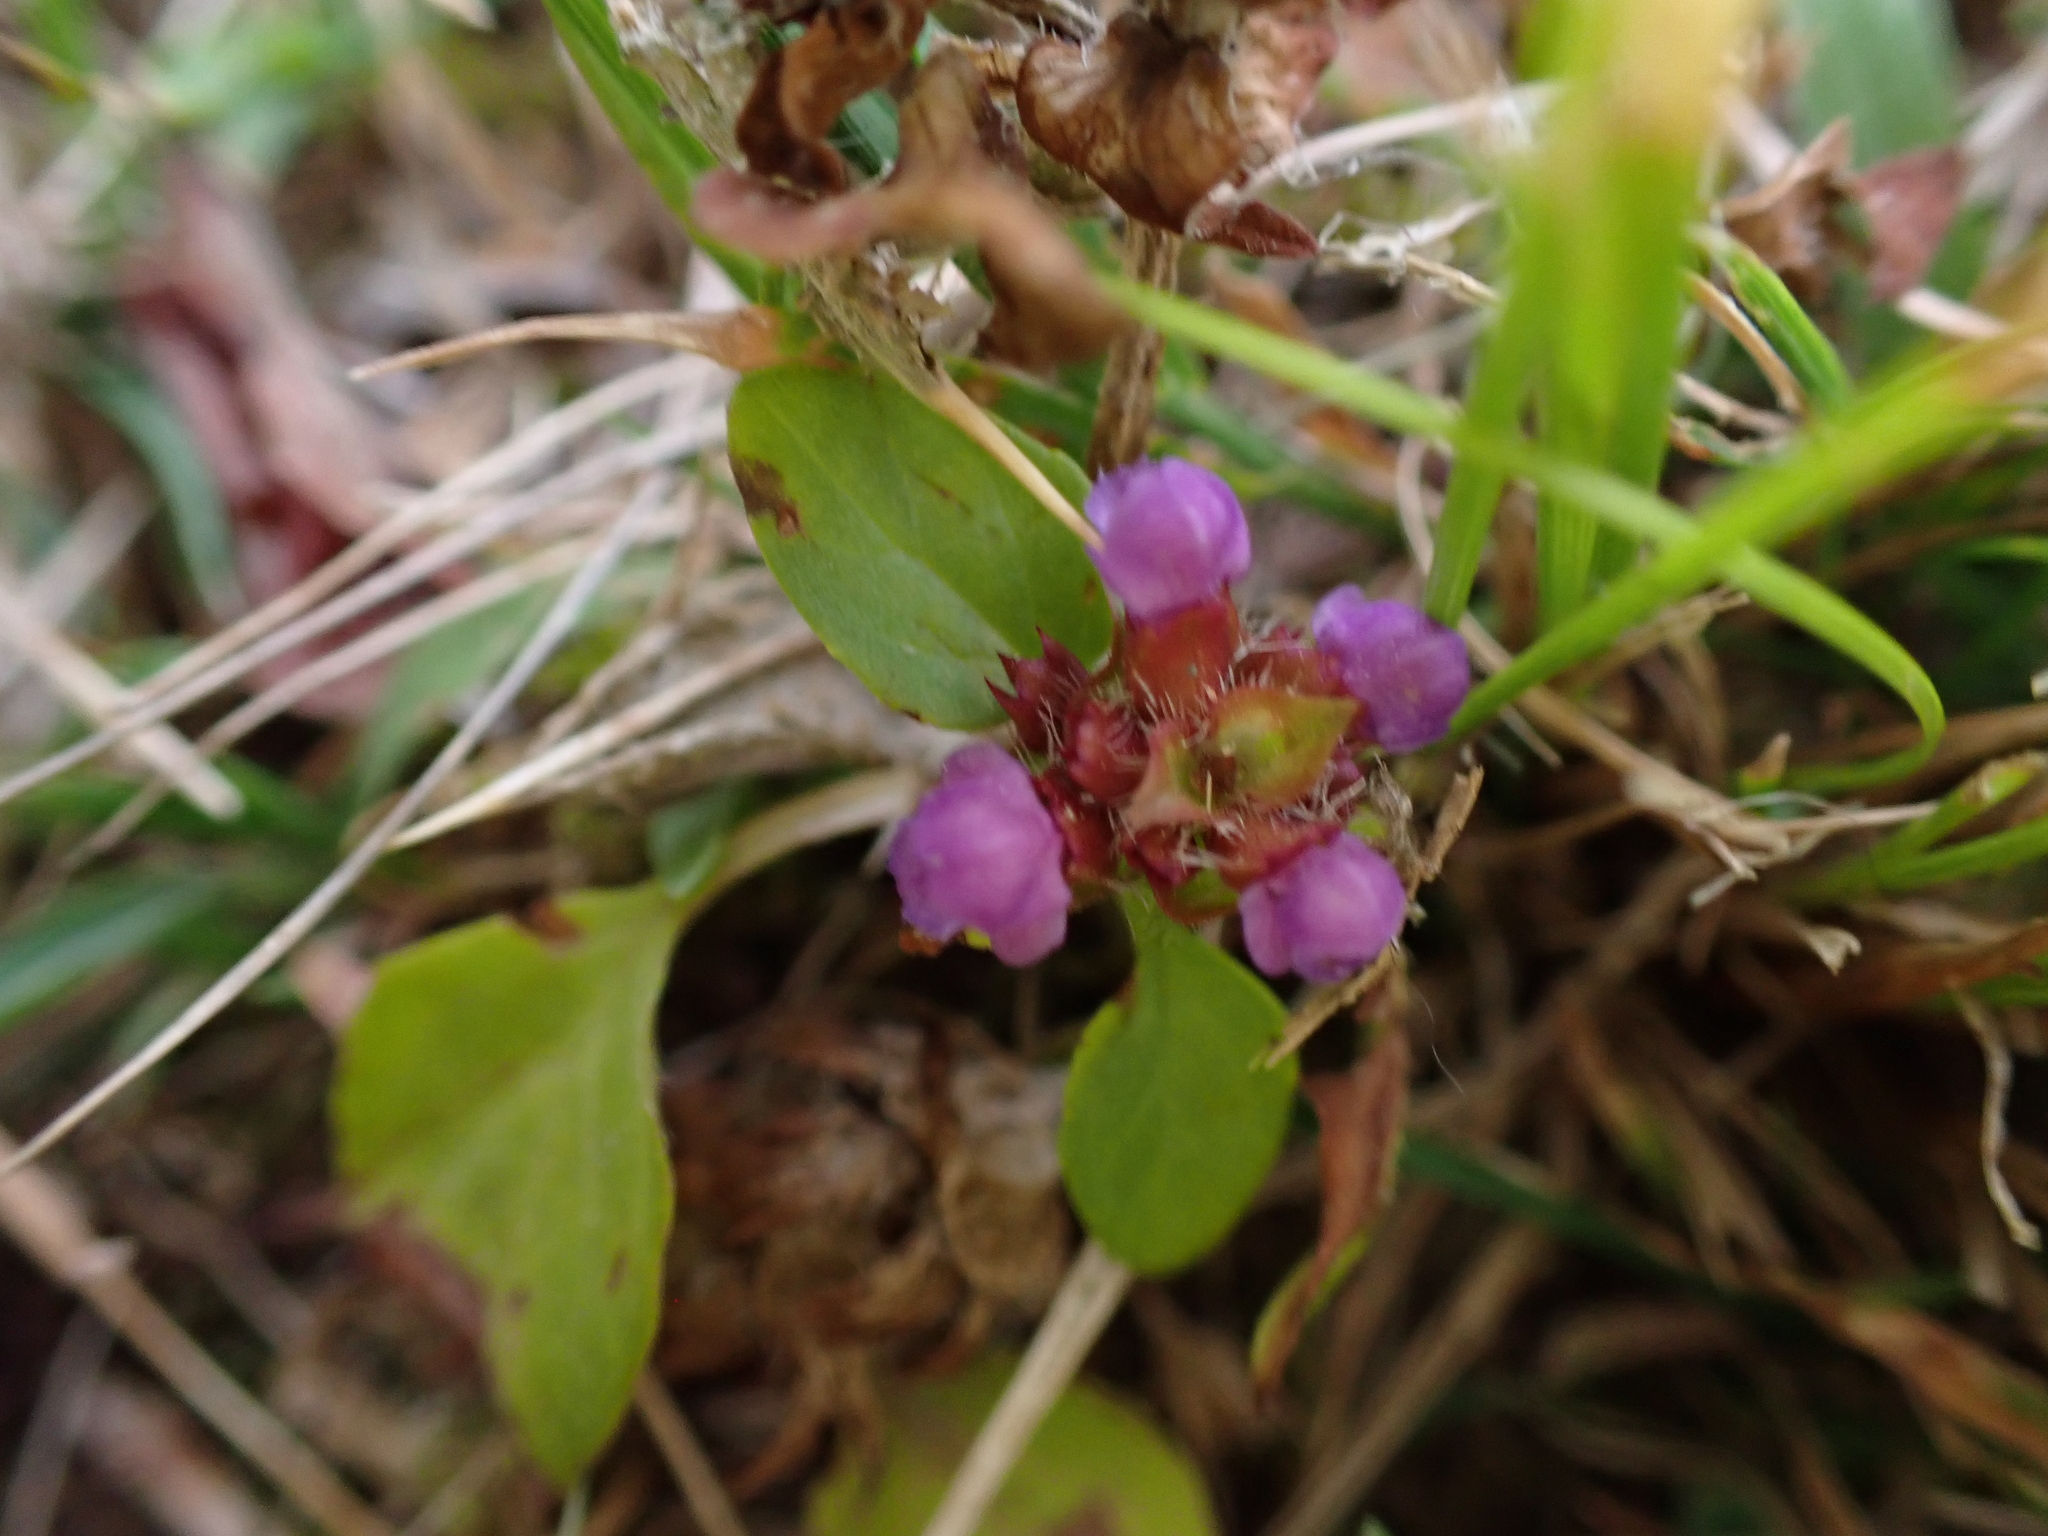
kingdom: Plantae
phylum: Tracheophyta
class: Magnoliopsida
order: Lamiales
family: Lamiaceae
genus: Prunella
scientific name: Prunella vulgaris
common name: Heal-all
